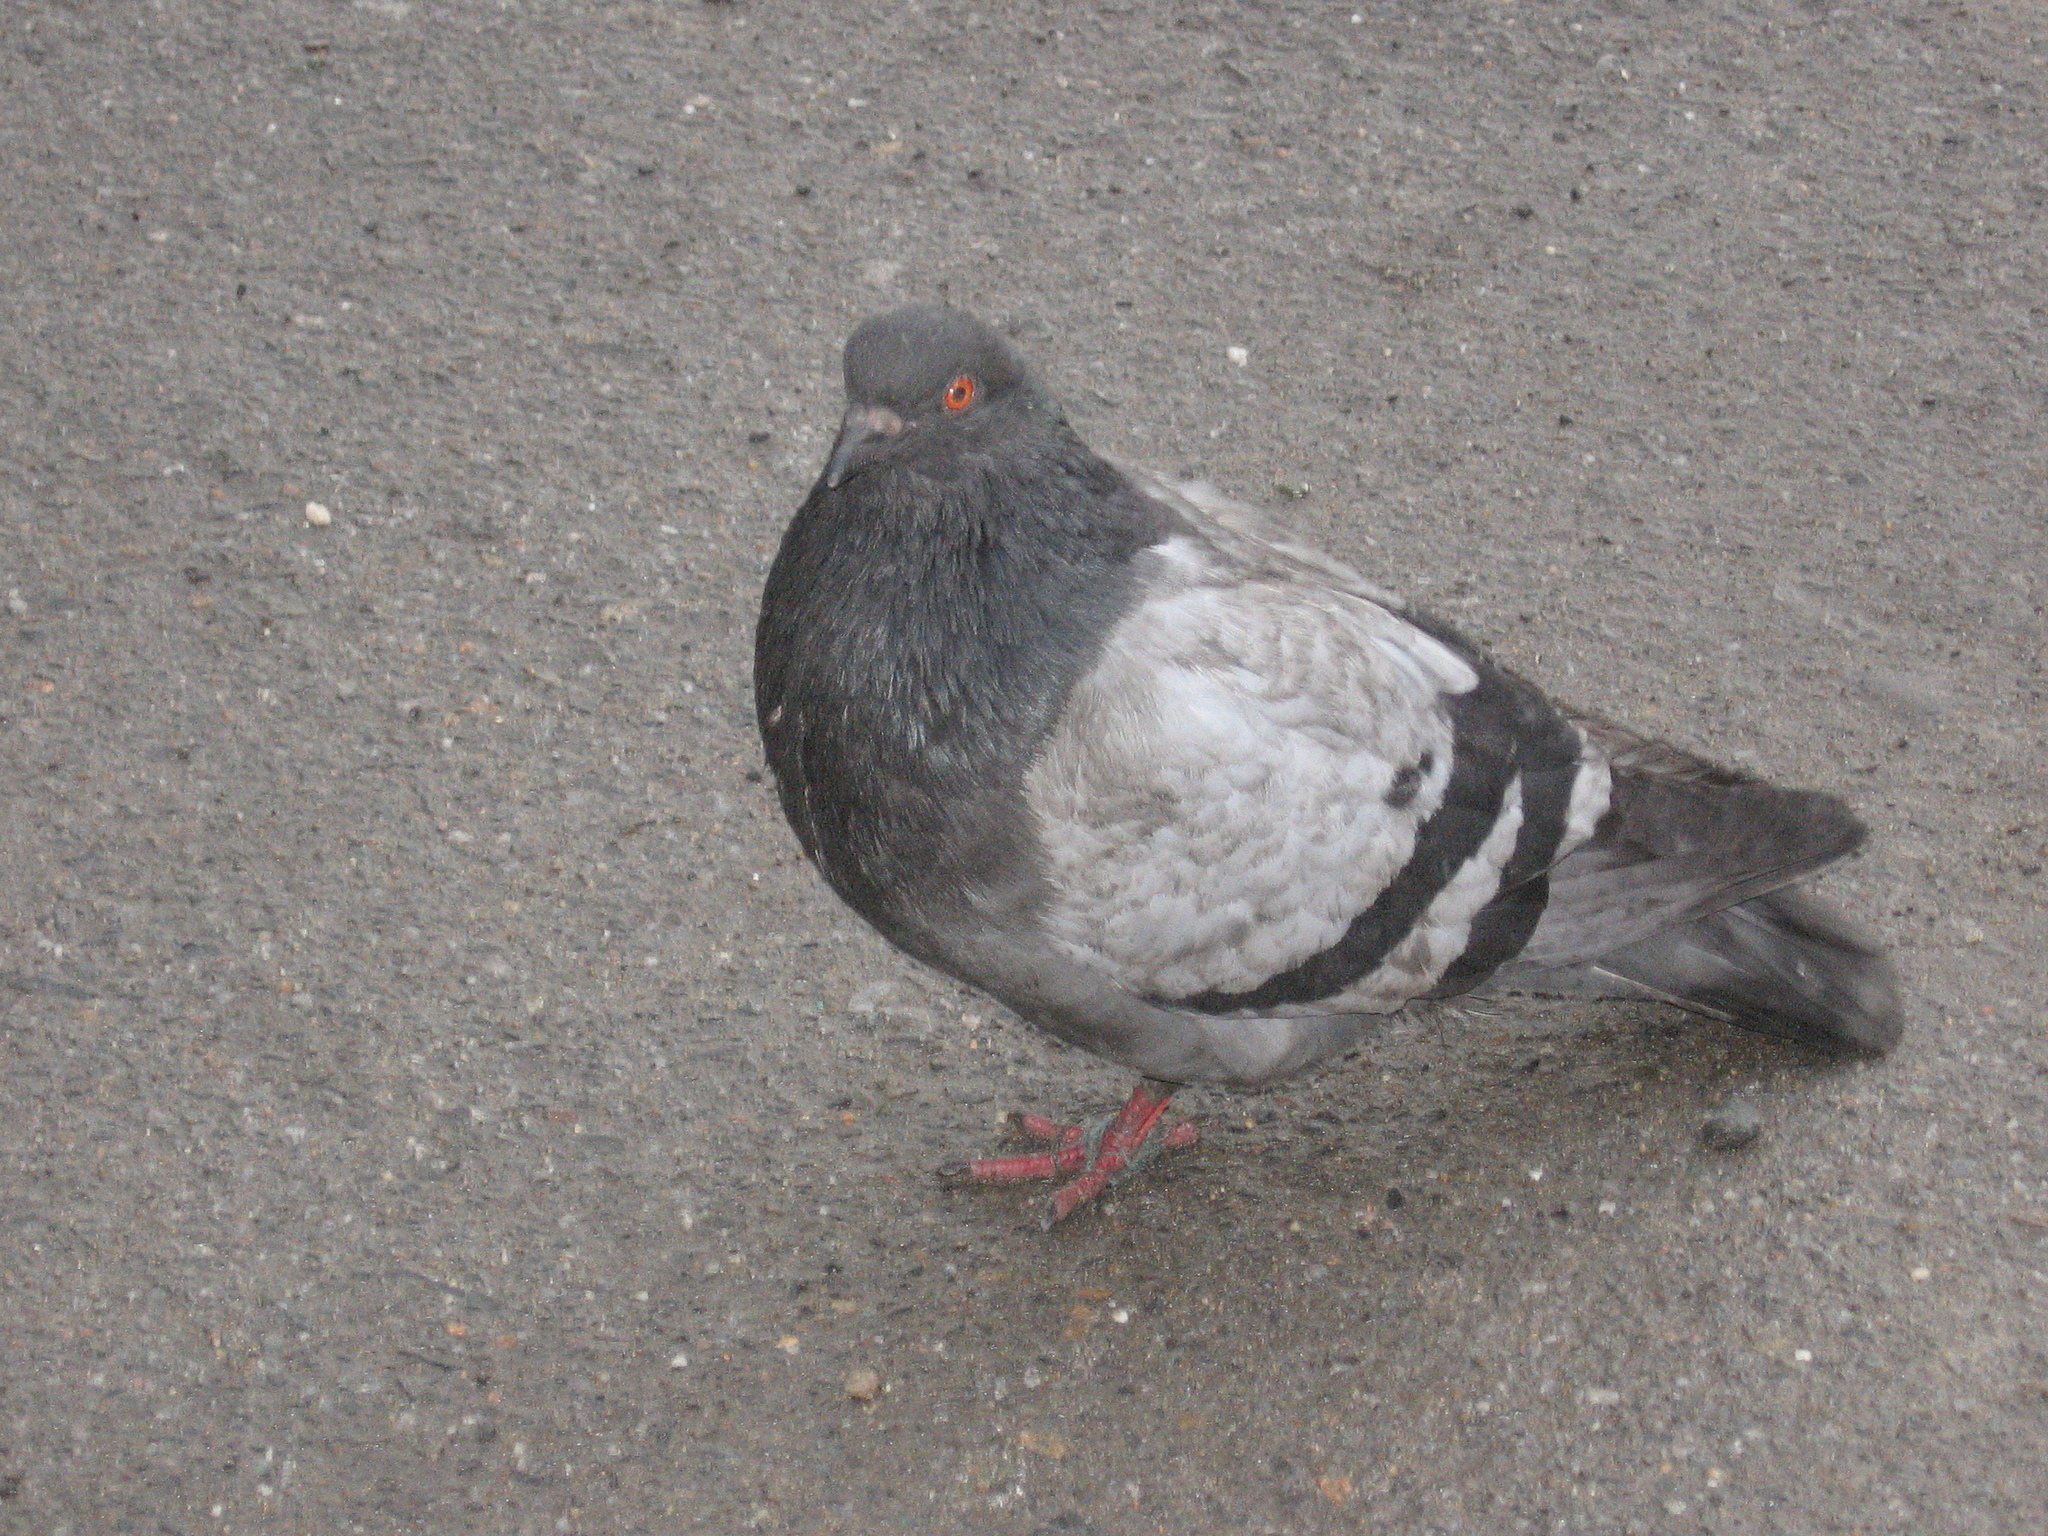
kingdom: Animalia
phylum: Chordata
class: Aves
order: Columbiformes
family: Columbidae
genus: Columba
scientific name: Columba livia
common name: Rock pigeon
